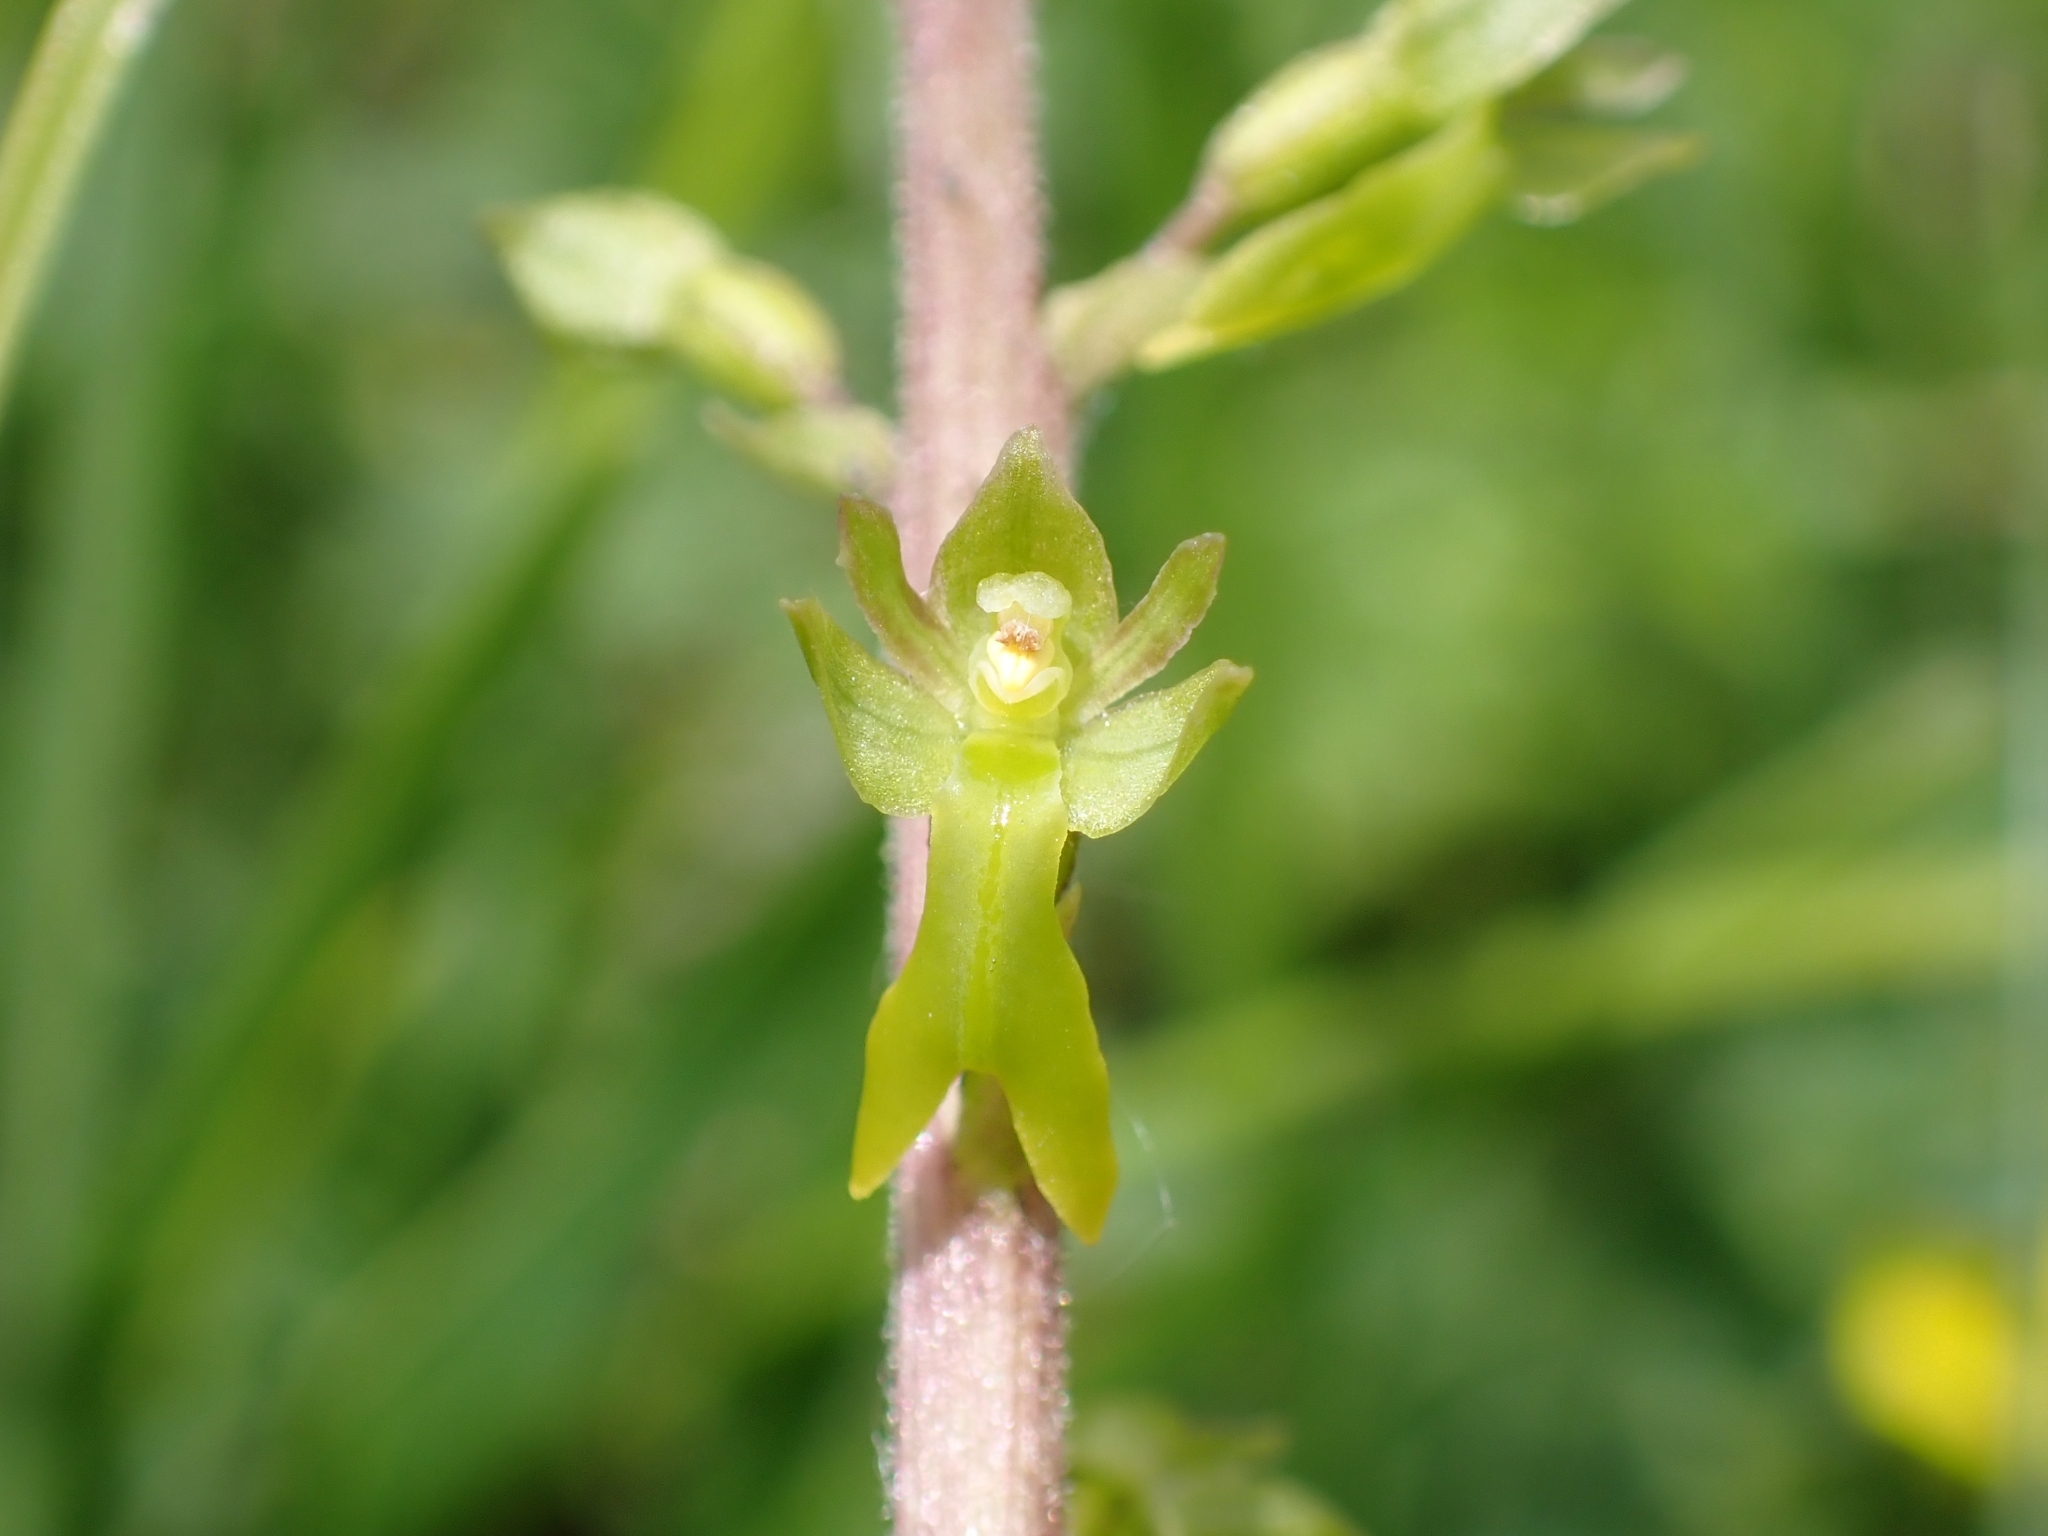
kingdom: Plantae
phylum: Tracheophyta
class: Liliopsida
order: Asparagales
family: Orchidaceae
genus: Neottia
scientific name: Neottia ovata
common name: Common twayblade
